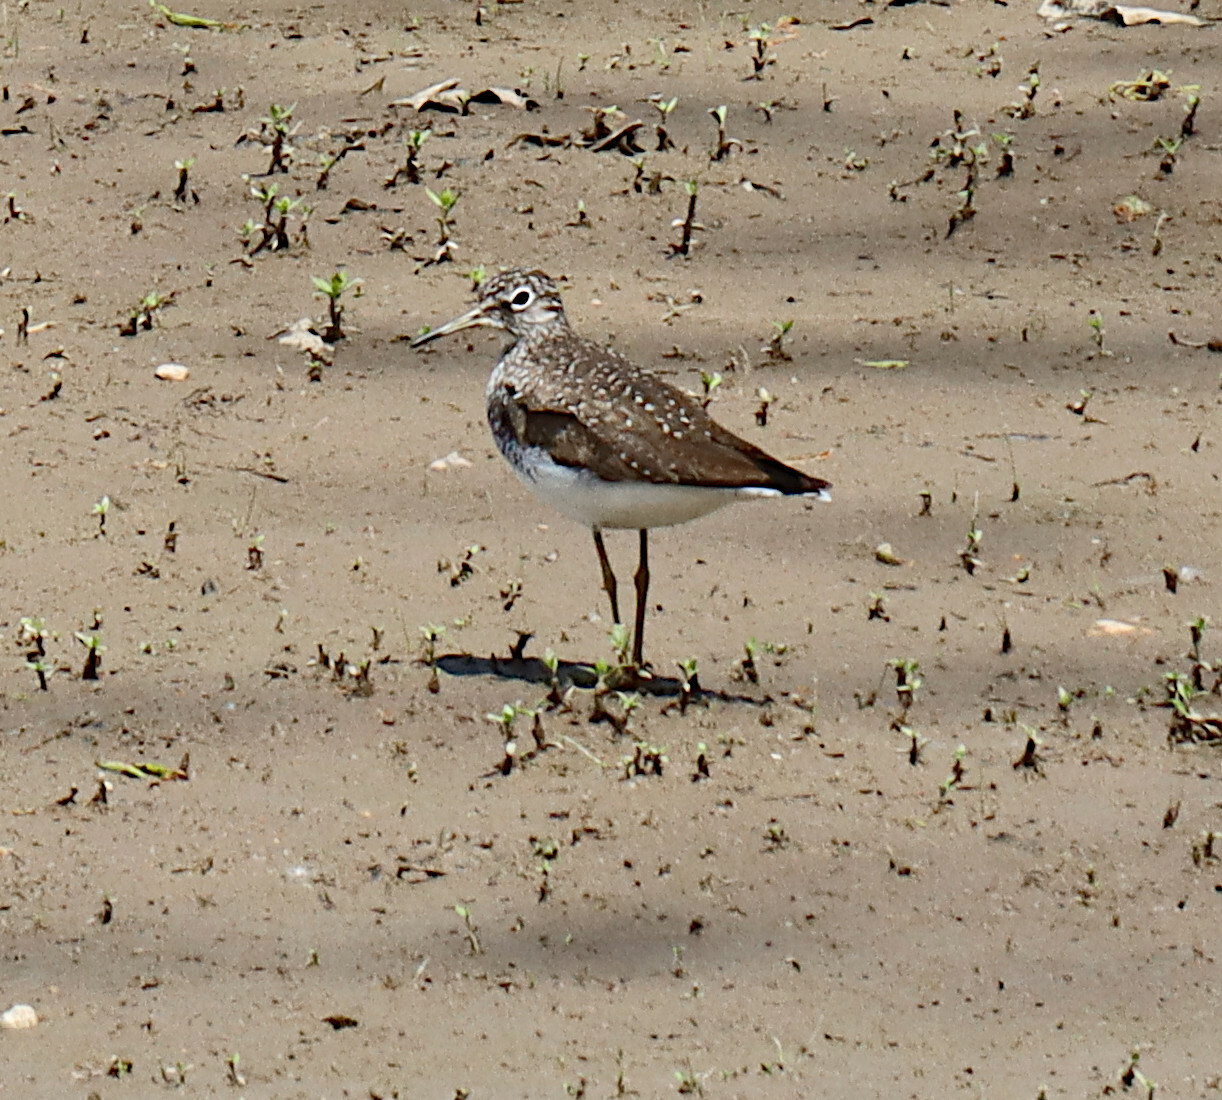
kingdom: Animalia
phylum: Chordata
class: Aves
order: Charadriiformes
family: Scolopacidae
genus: Tringa
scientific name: Tringa solitaria
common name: Solitary sandpiper
